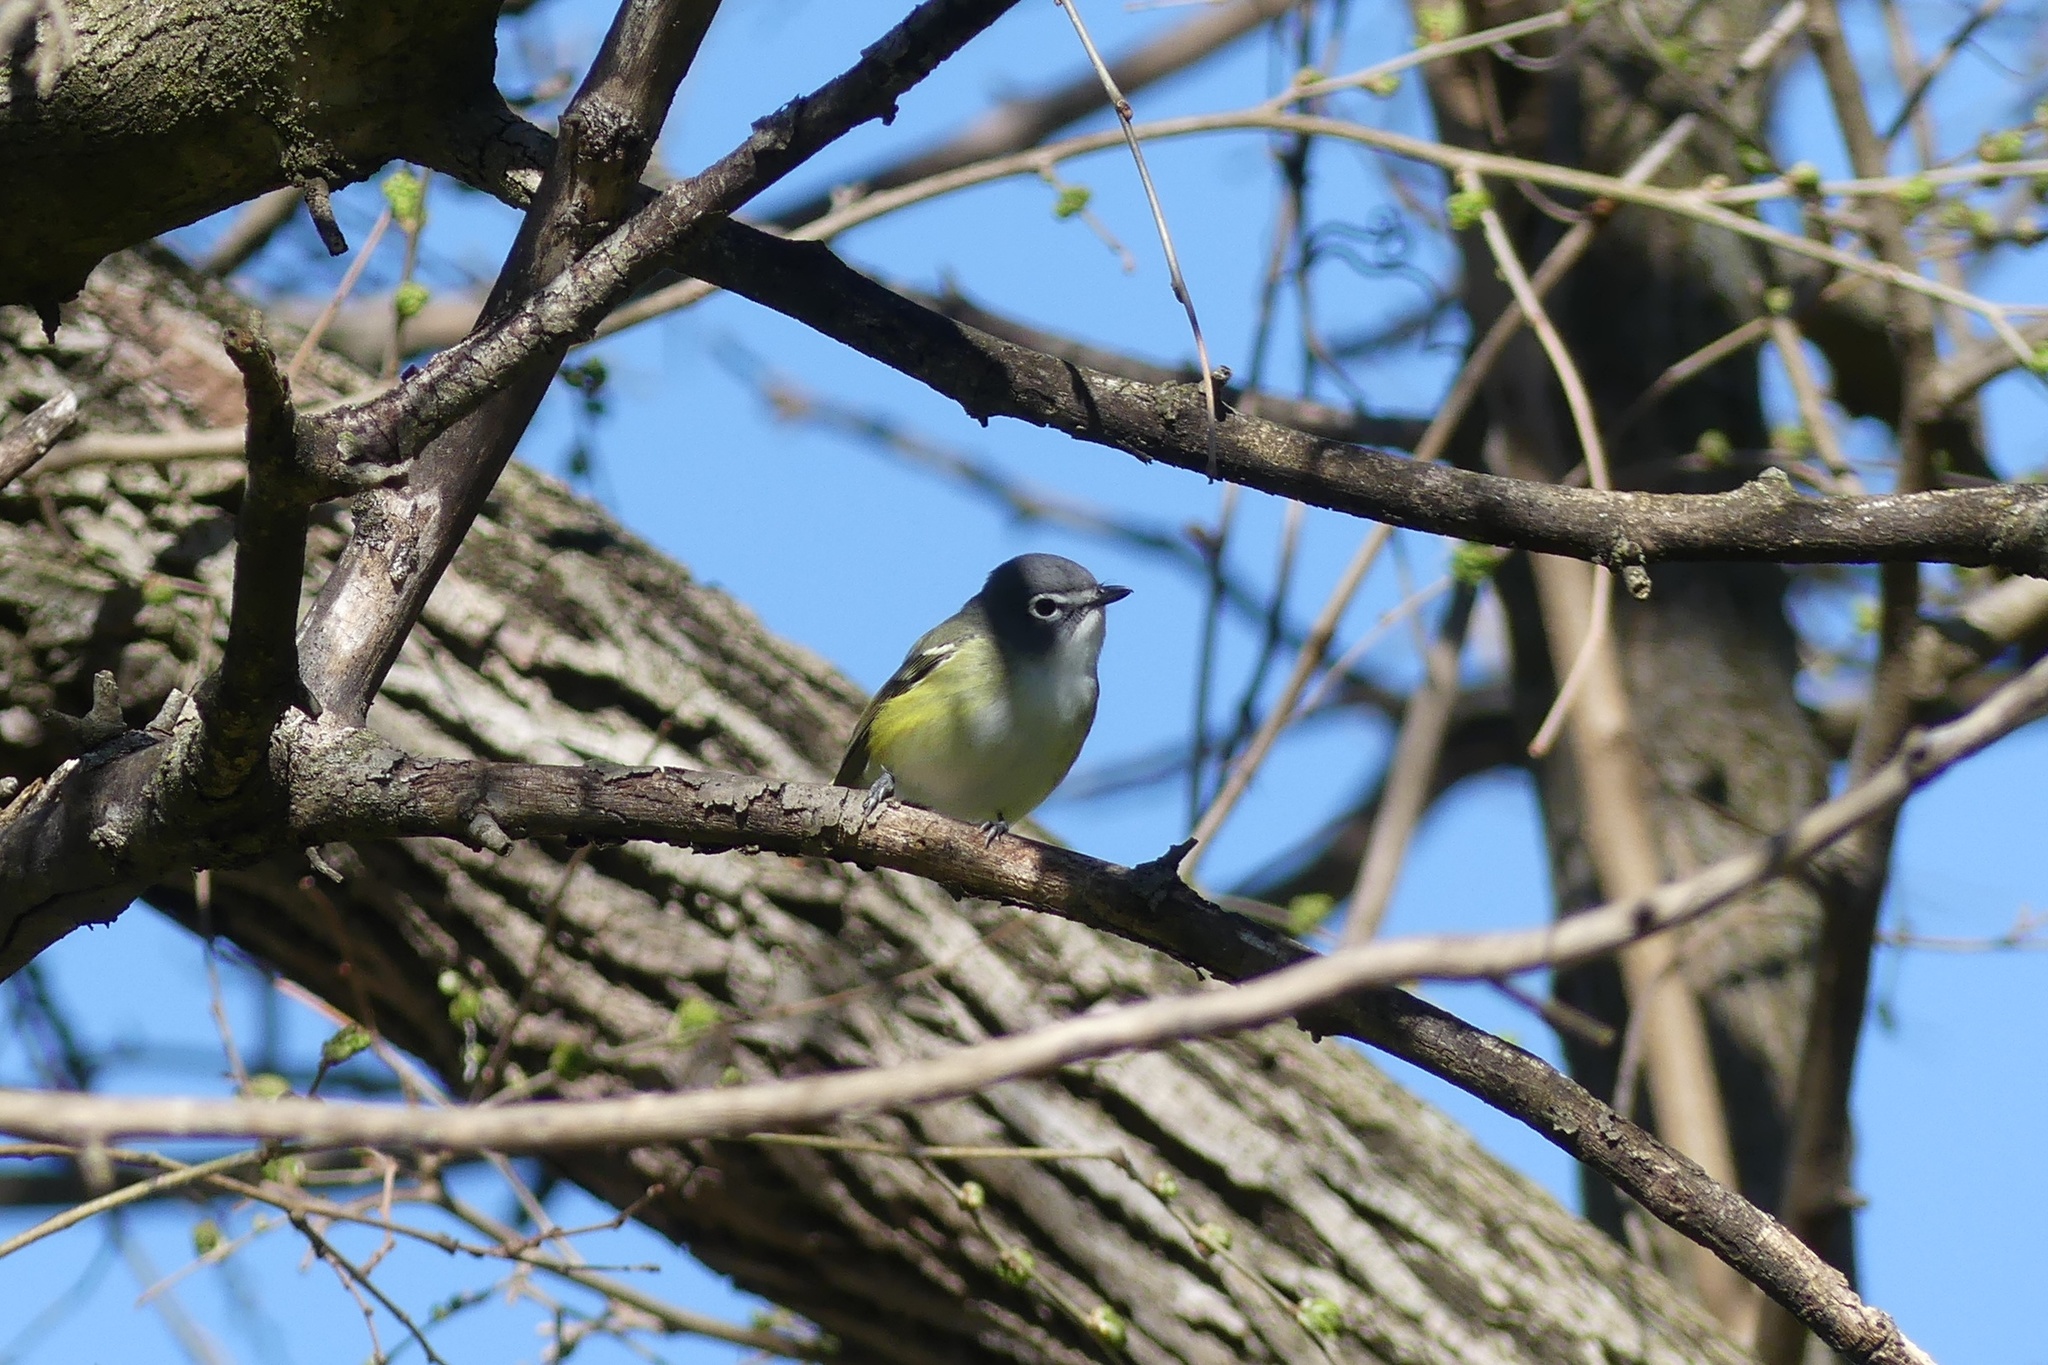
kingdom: Animalia
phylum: Chordata
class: Aves
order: Passeriformes
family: Vireonidae
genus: Vireo
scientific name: Vireo solitarius
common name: Blue-headed vireo
